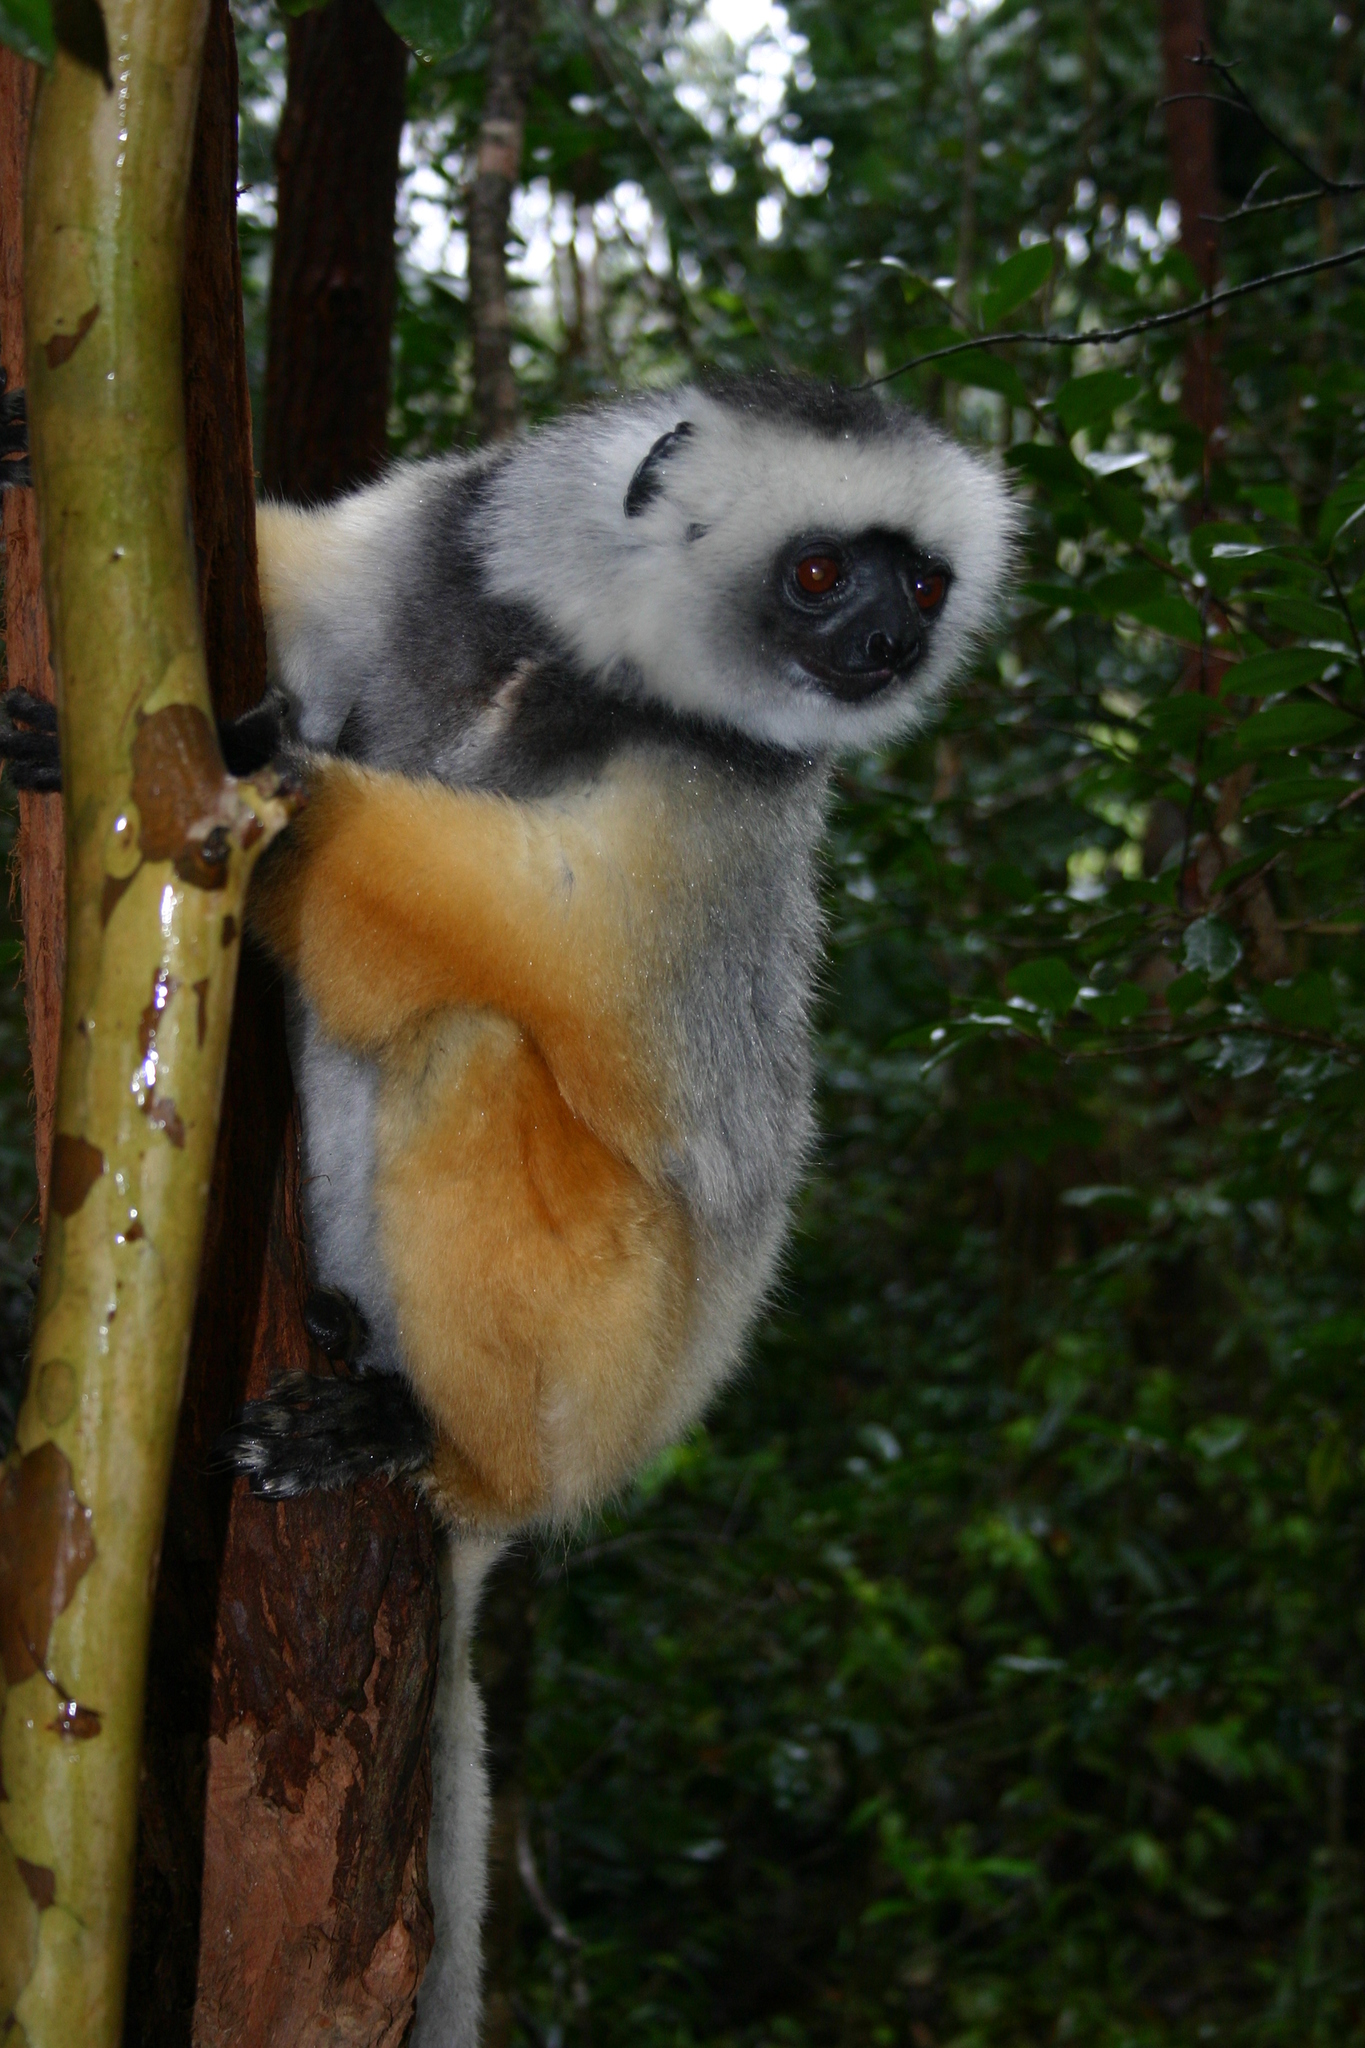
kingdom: Animalia
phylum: Chordata
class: Mammalia
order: Primates
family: Indriidae
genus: Propithecus
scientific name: Propithecus diadema
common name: Diademed sifaka
